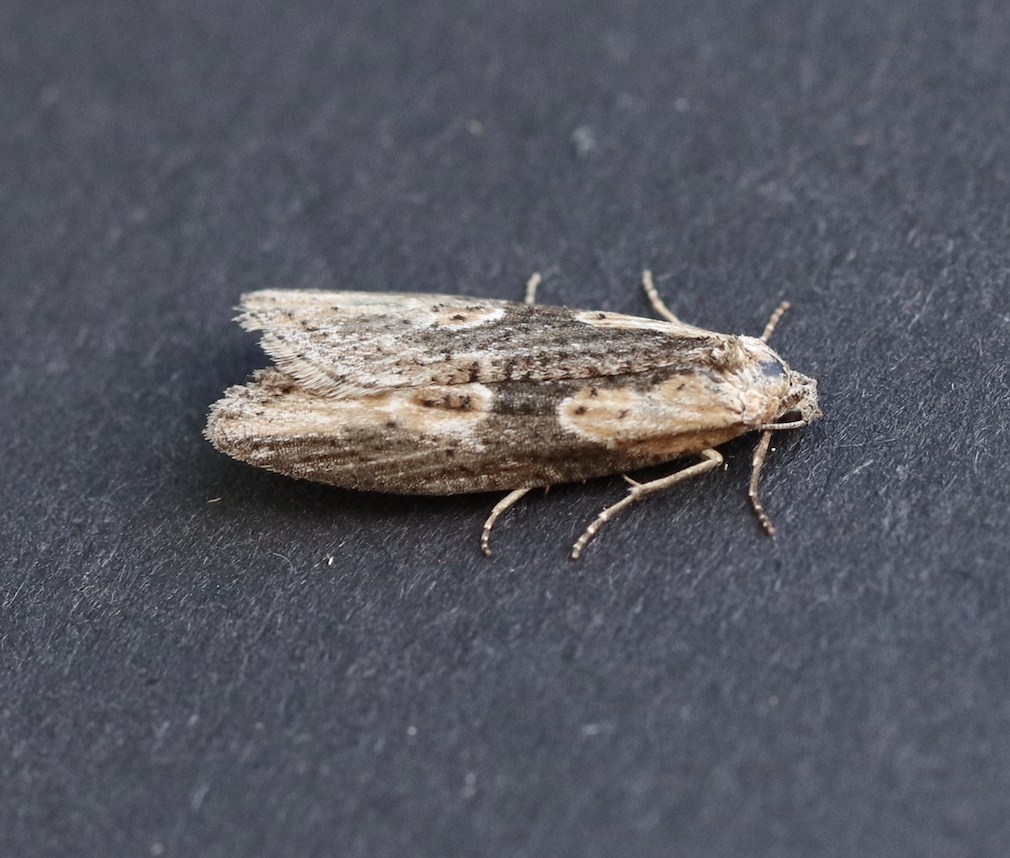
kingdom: Animalia
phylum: Arthropoda
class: Insecta
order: Lepidoptera
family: Tortricidae
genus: Doloploca
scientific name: Doloploca punctulana
